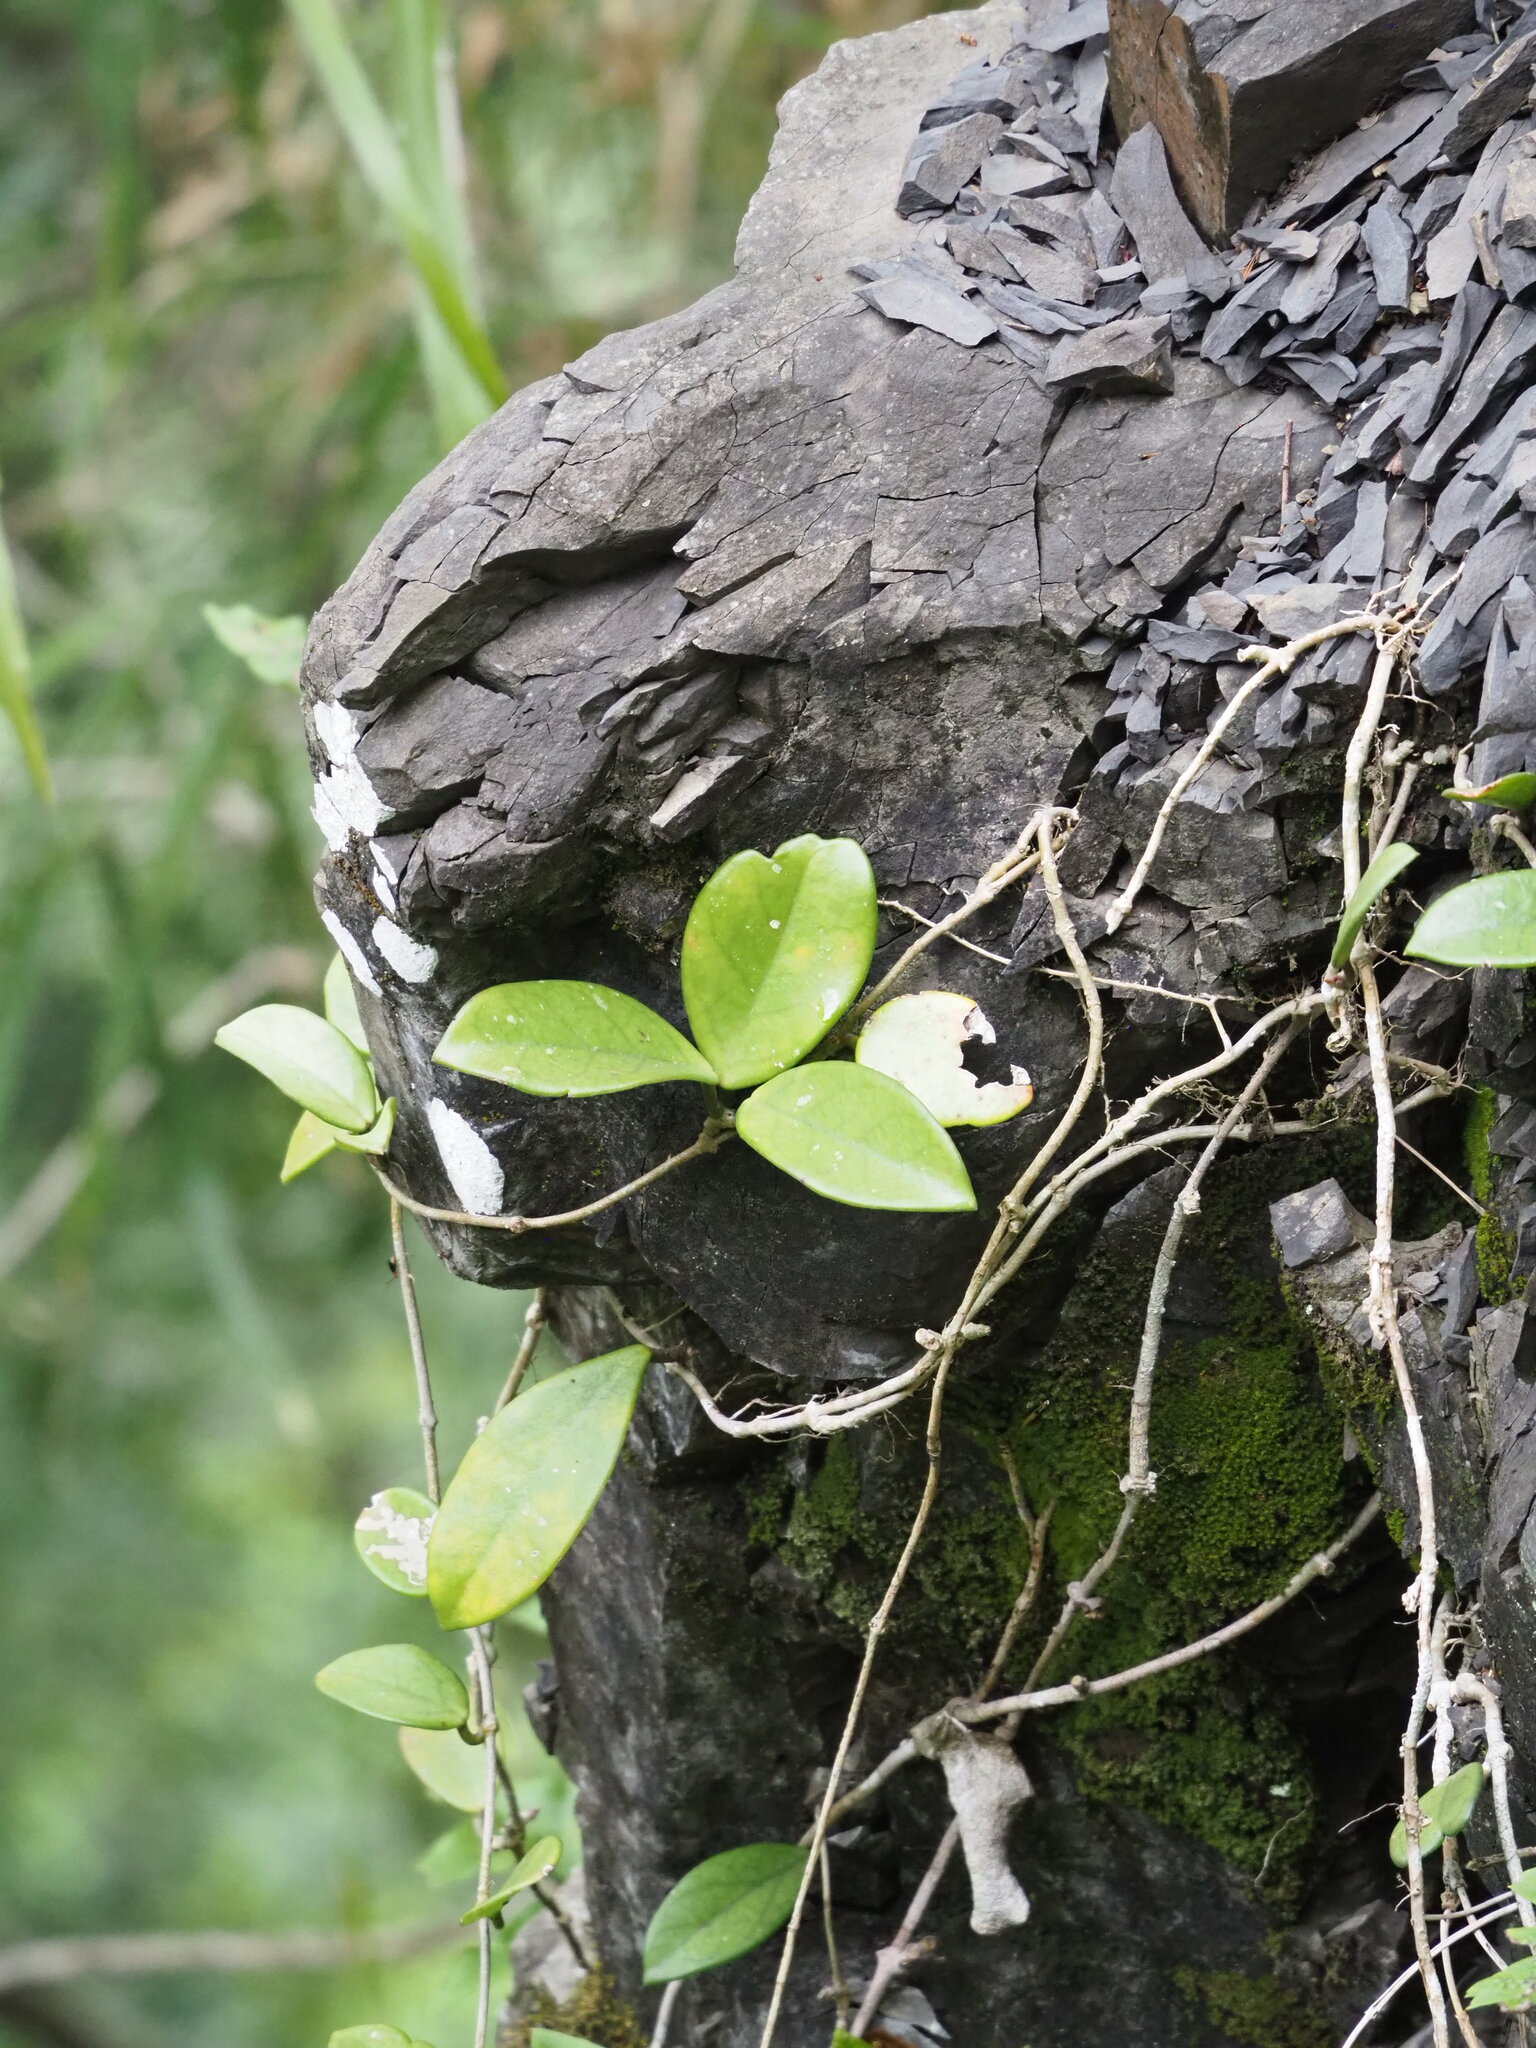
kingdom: Plantae
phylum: Tracheophyta
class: Magnoliopsida
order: Gentianales
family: Apocynaceae
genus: Hoya
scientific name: Hoya carnosa
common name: Honeyplant
